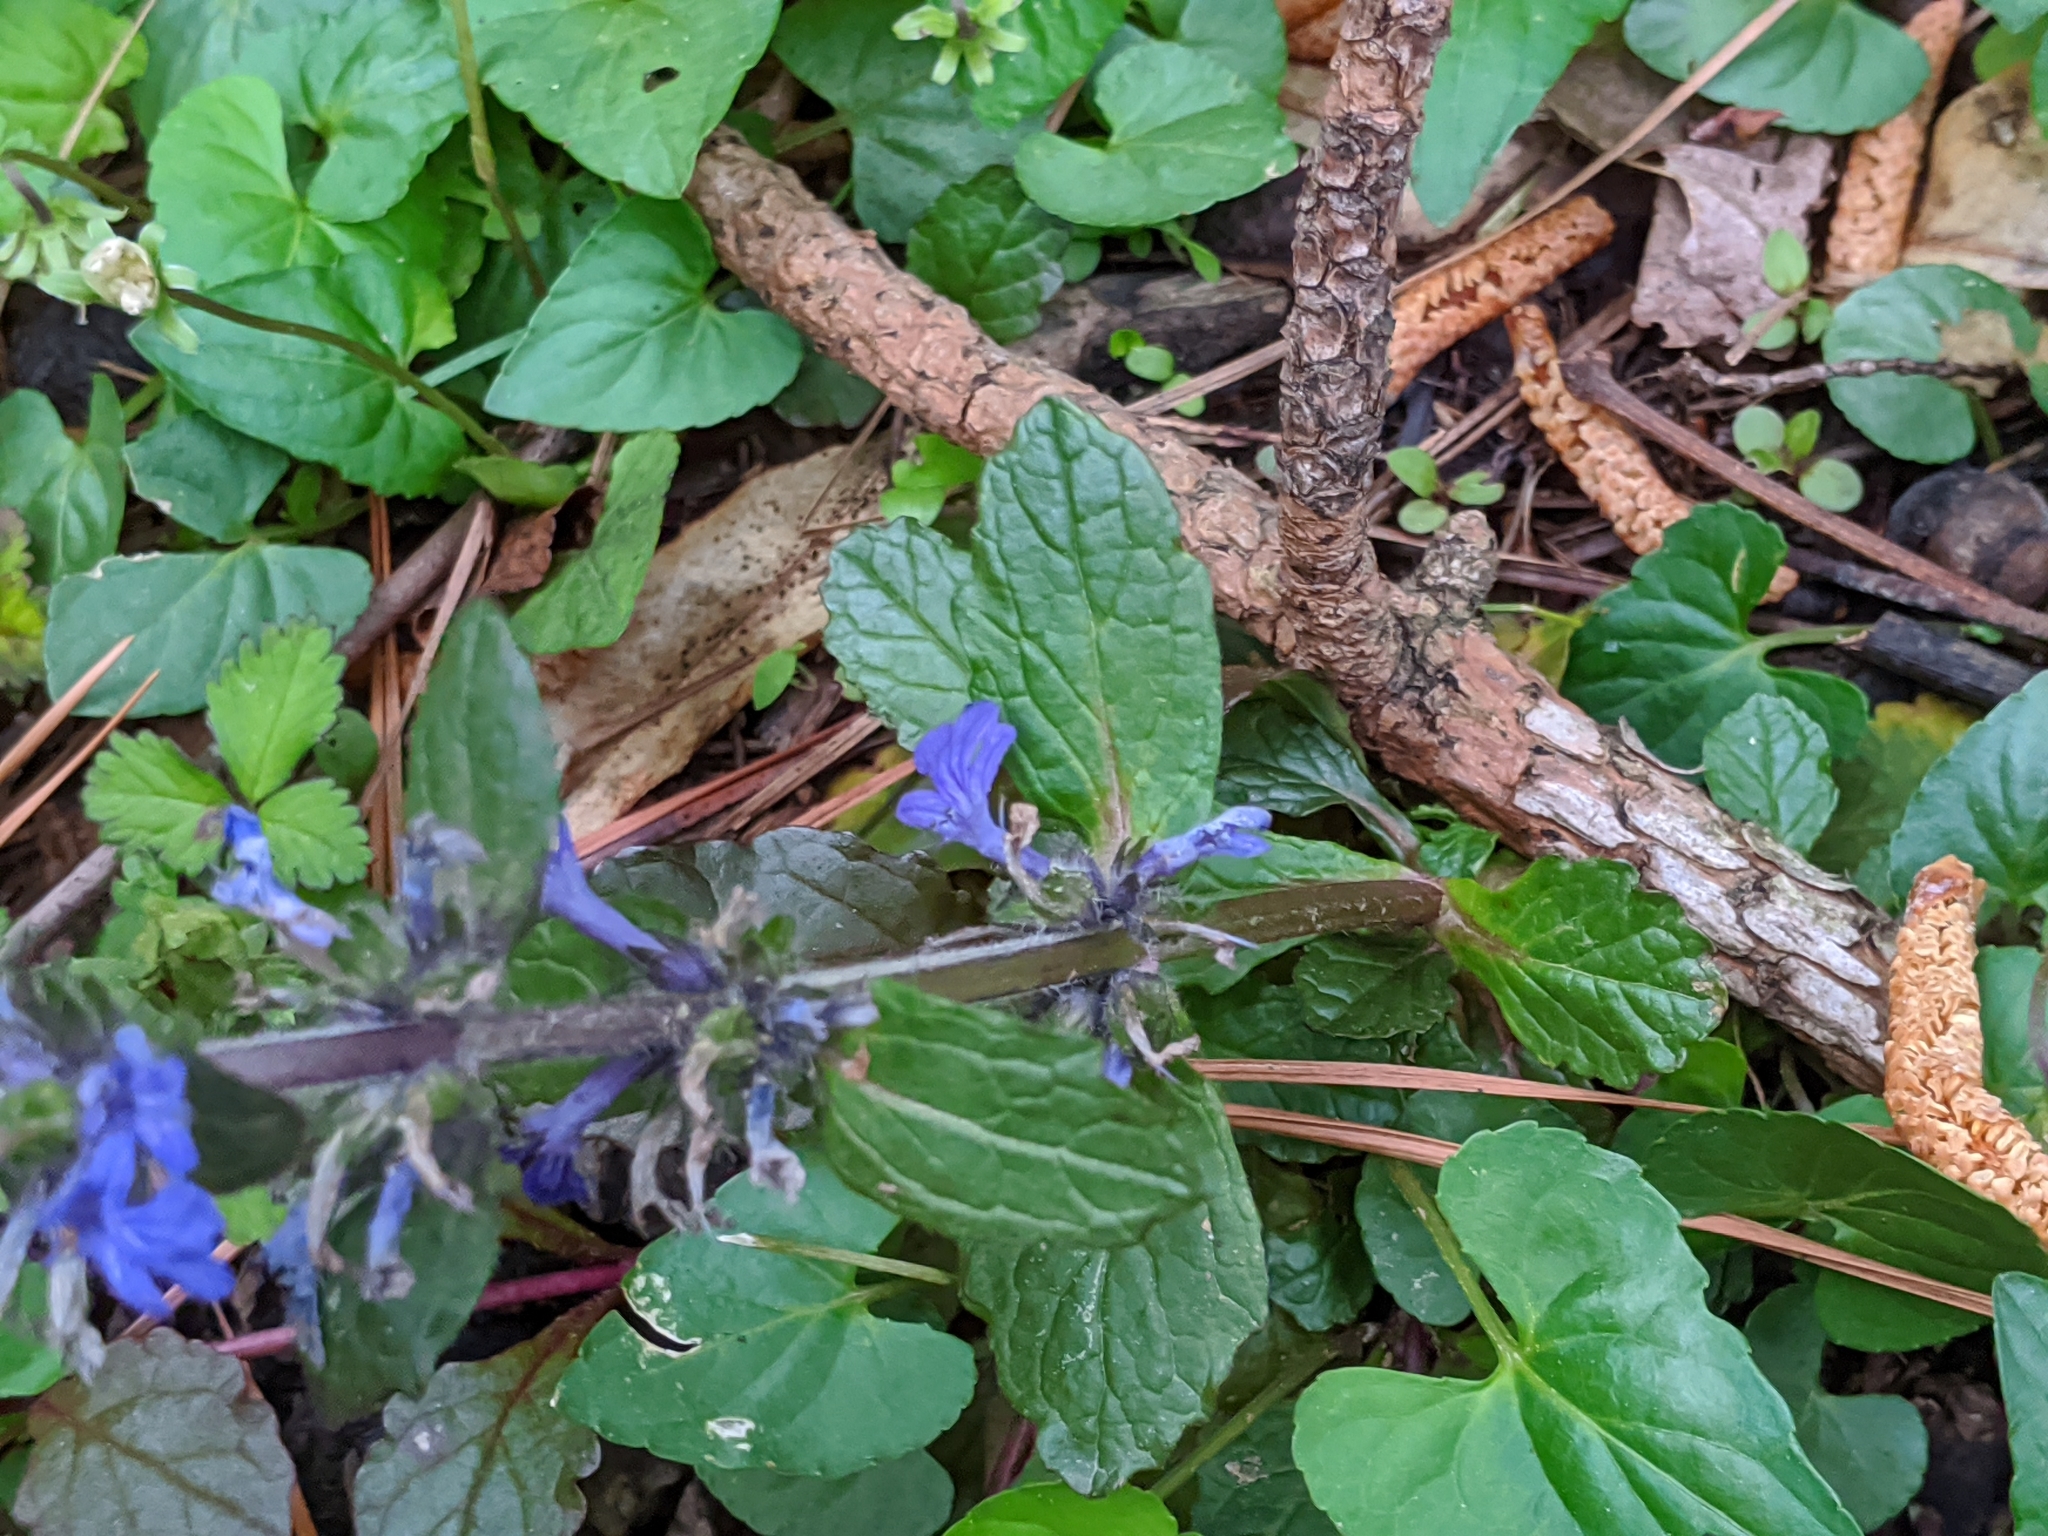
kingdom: Plantae
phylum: Tracheophyta
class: Magnoliopsida
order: Lamiales
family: Lamiaceae
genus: Ajuga
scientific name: Ajuga reptans
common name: Bugle
